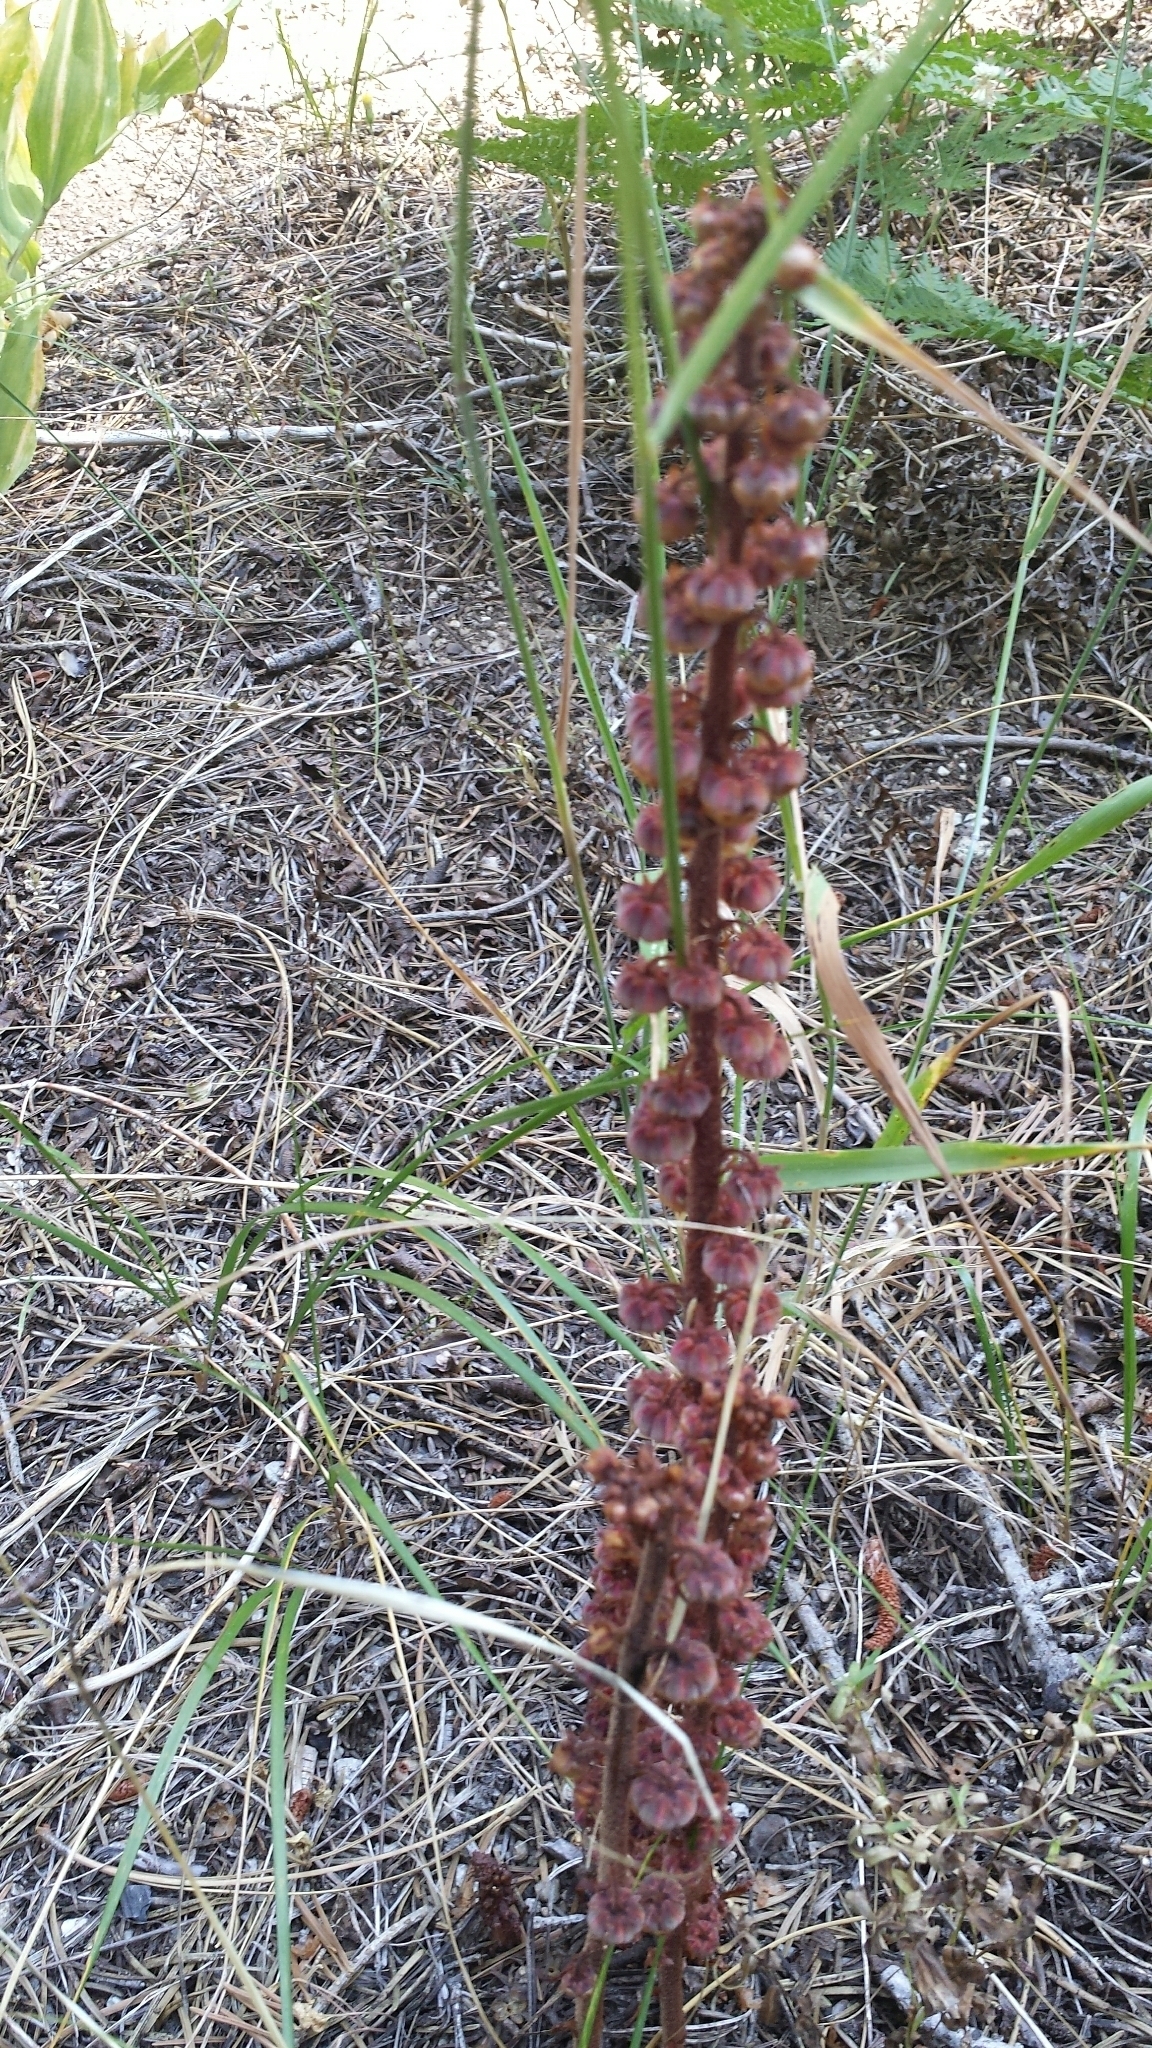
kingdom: Plantae
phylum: Tracheophyta
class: Magnoliopsida
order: Ericales
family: Ericaceae
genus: Pterospora
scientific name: Pterospora andromedea
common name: Giant bird's-nest
